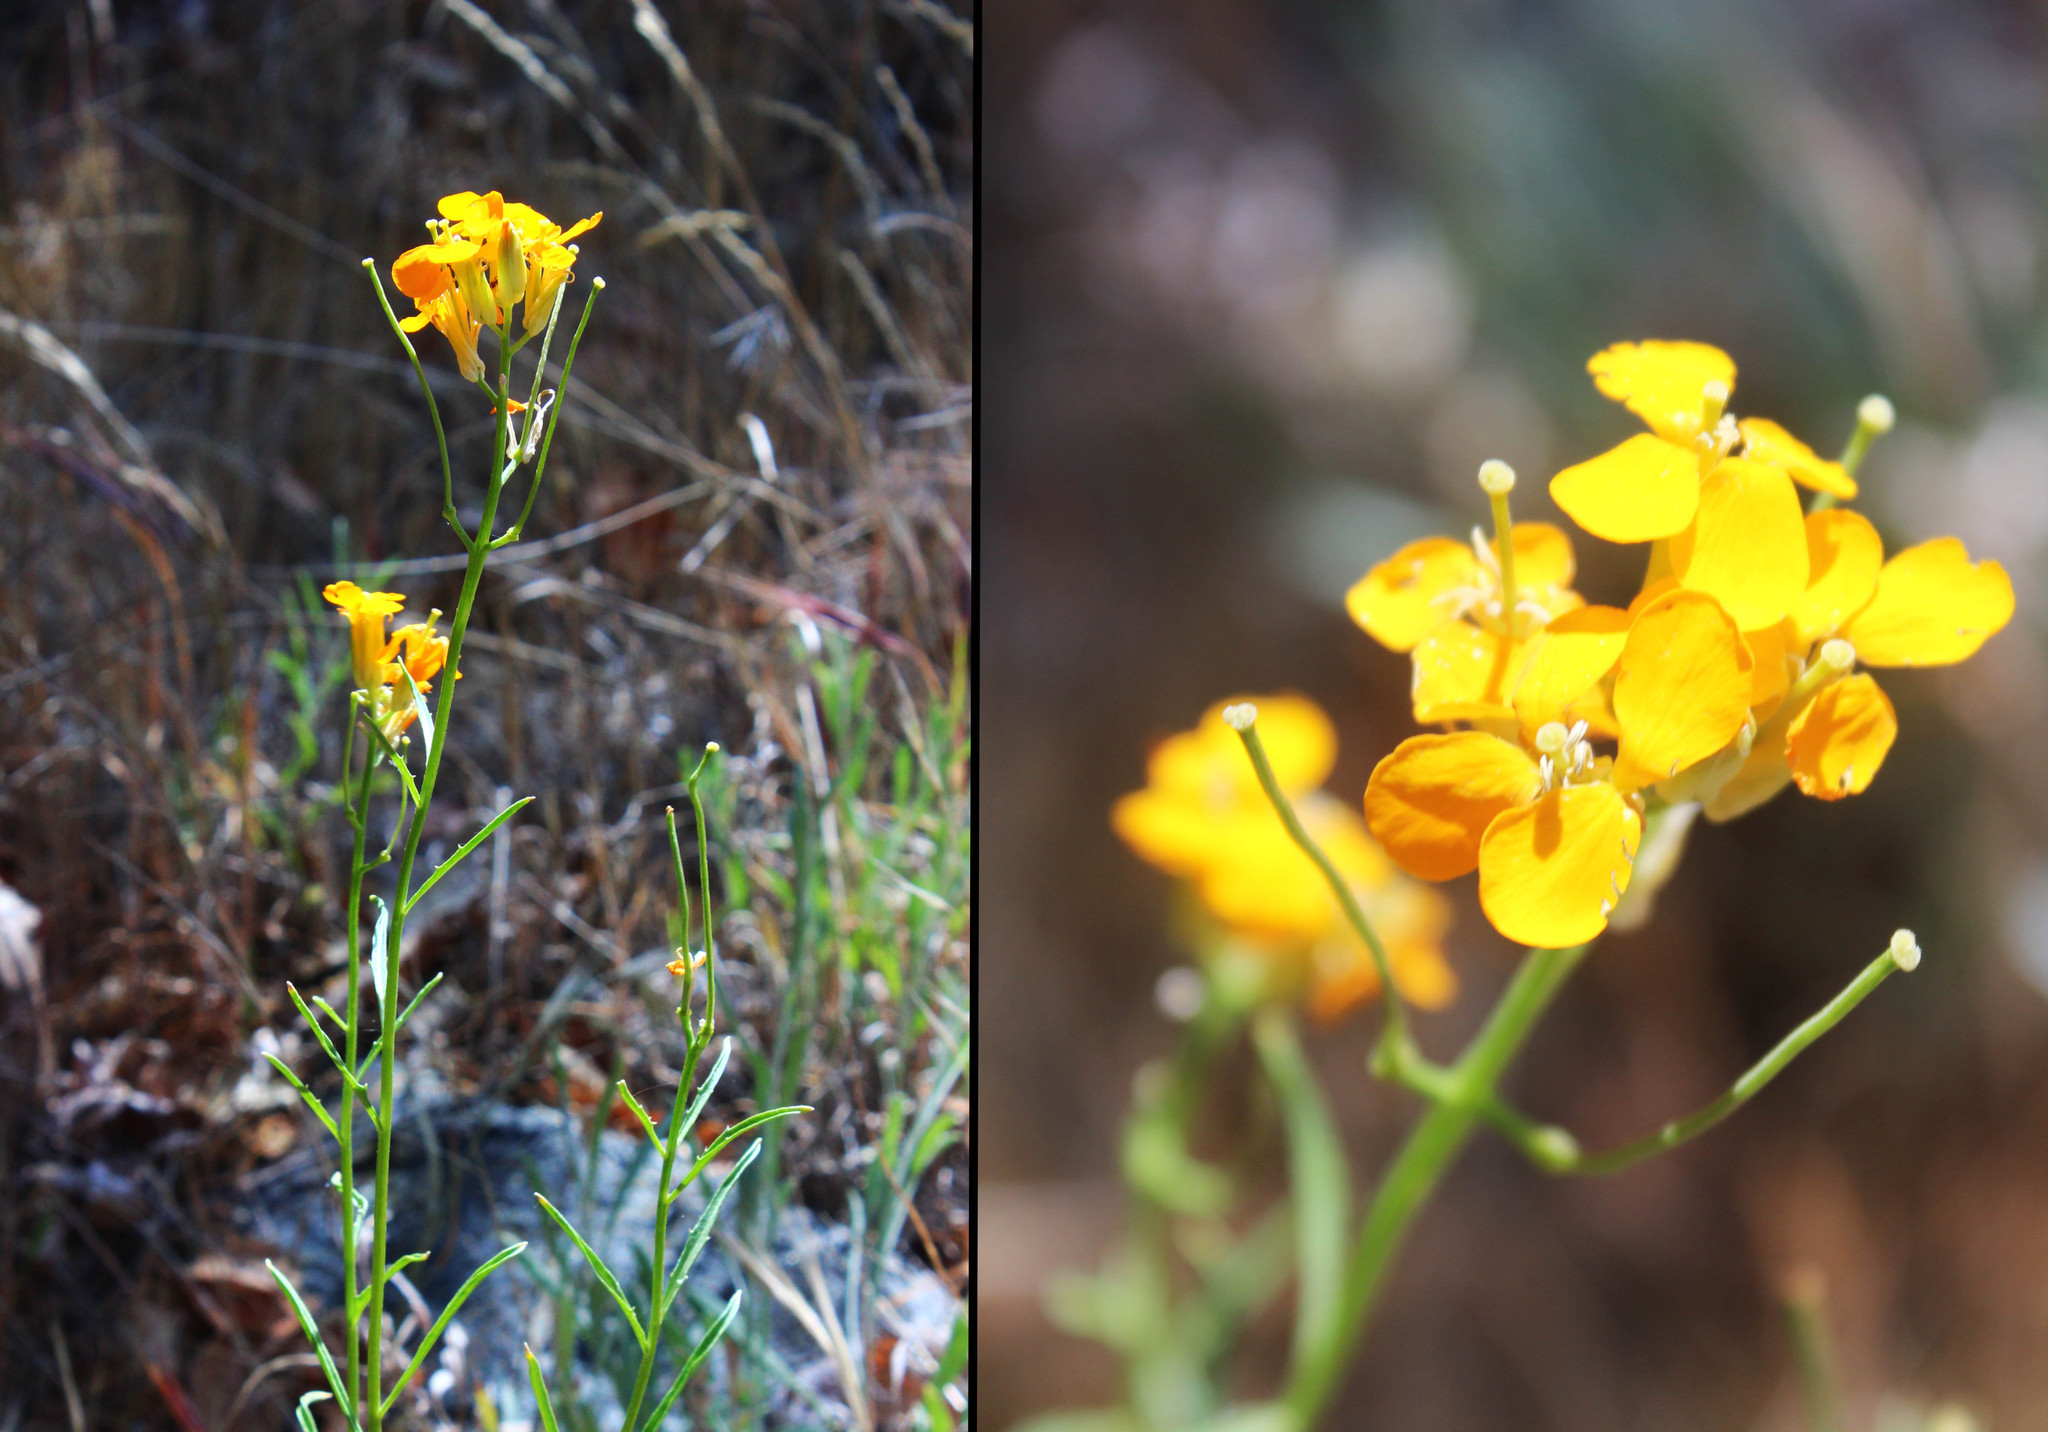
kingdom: Plantae
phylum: Tracheophyta
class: Magnoliopsida
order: Brassicales
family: Brassicaceae
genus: Erysimum
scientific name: Erysimum capitatum
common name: Western wallflower
